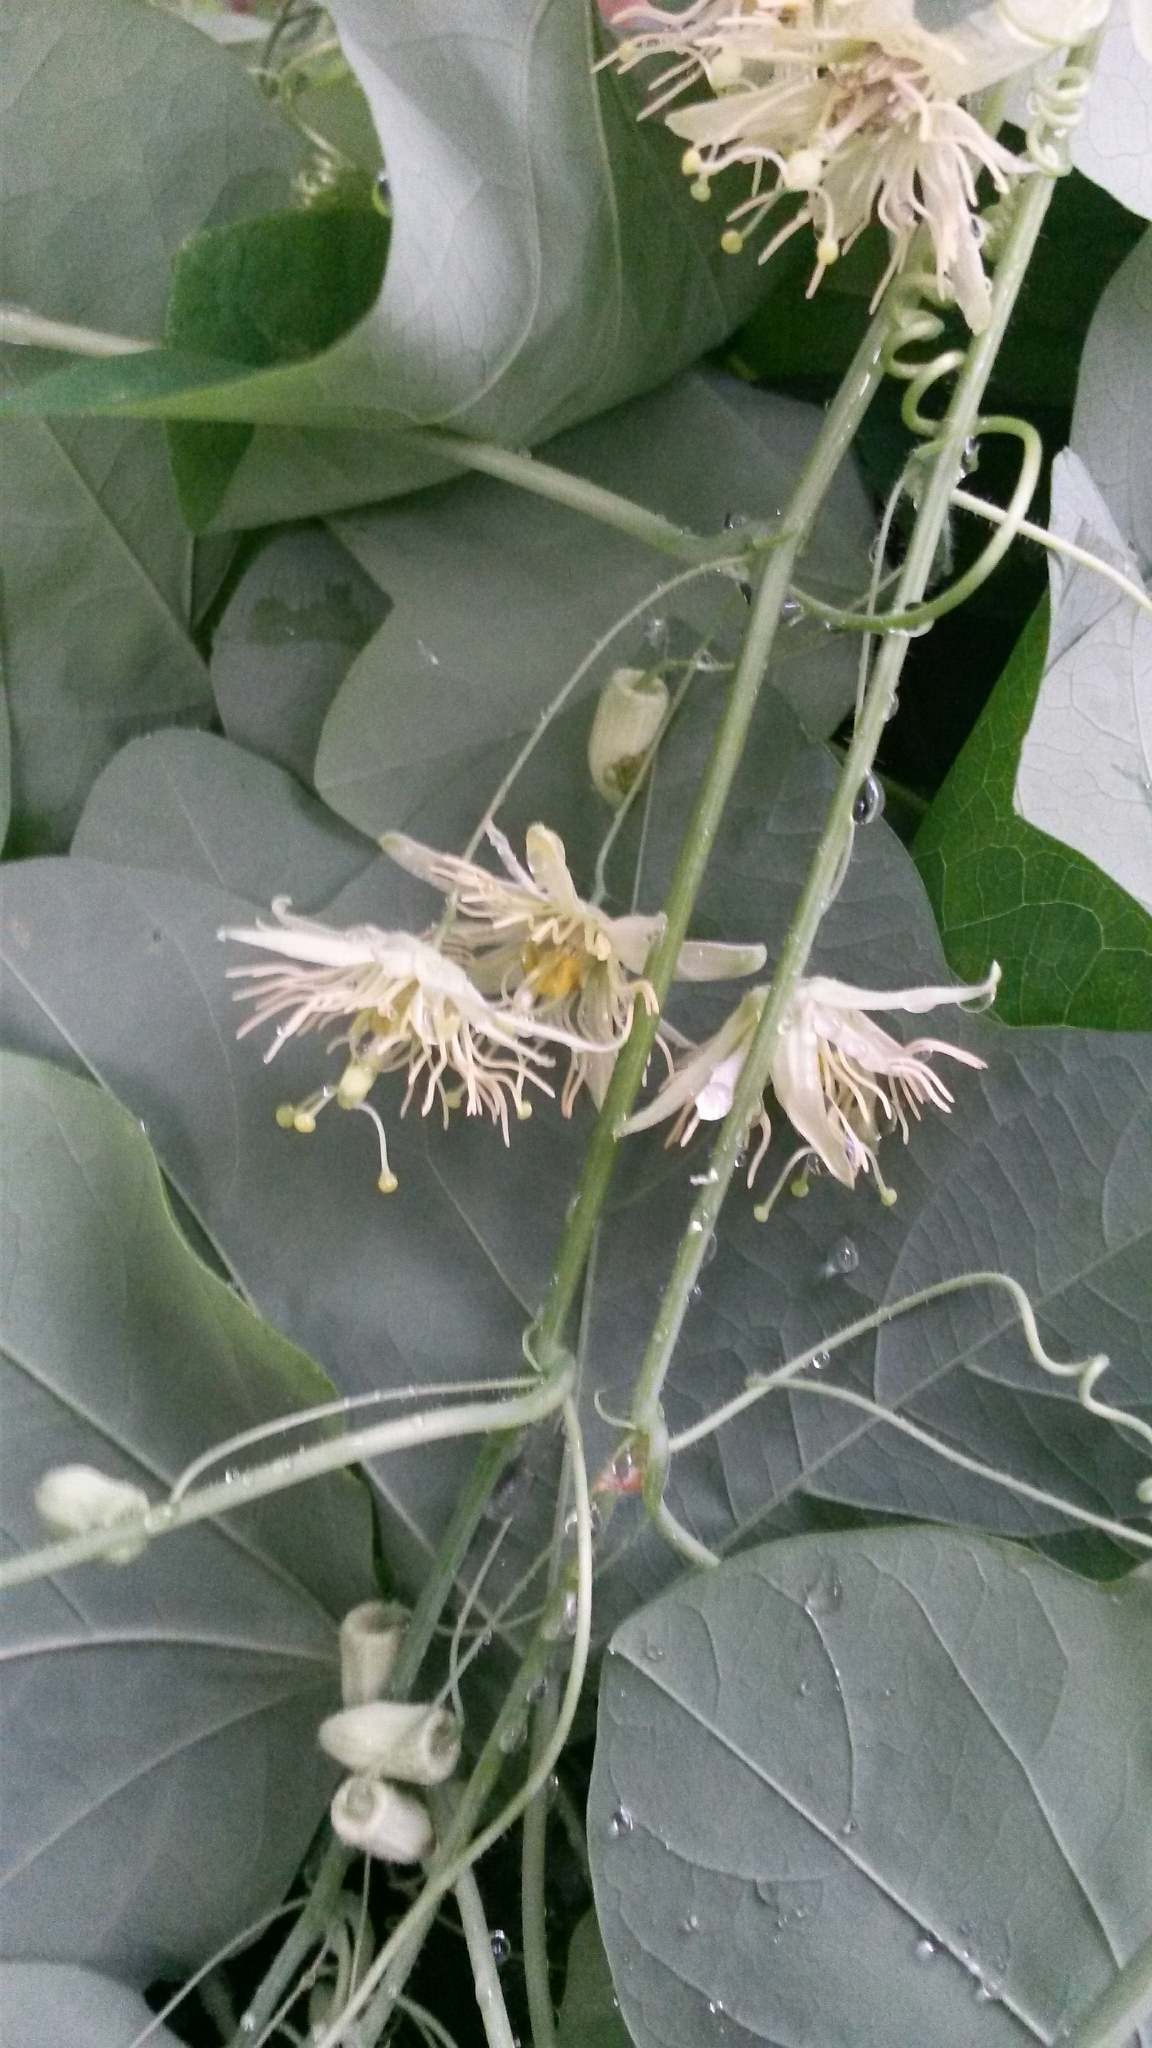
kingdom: Plantae
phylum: Tracheophyta
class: Magnoliopsida
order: Malpighiales
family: Passifloraceae
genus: Passiflora
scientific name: Passiflora lutea
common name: Yellow passionflower
